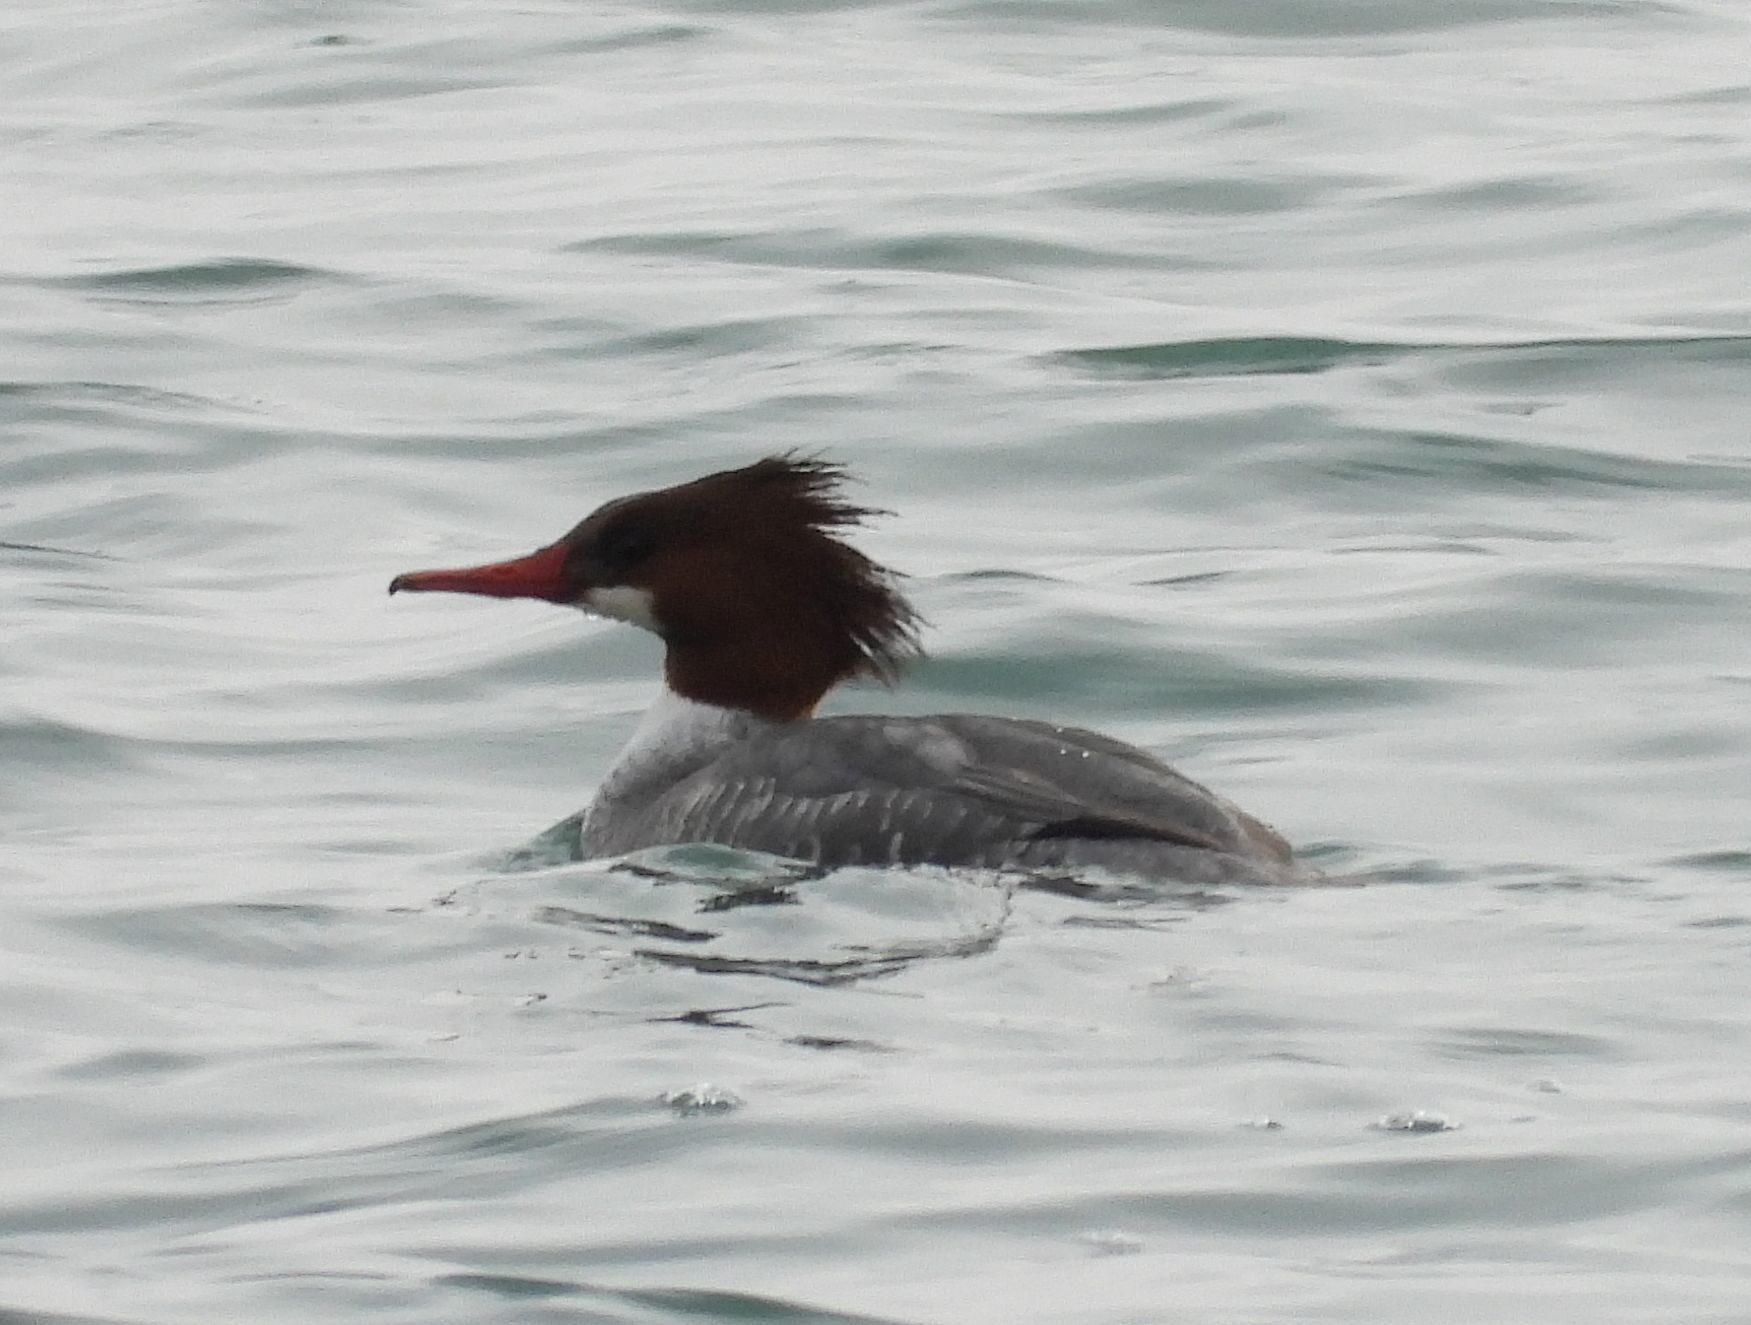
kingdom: Animalia
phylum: Chordata
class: Aves
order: Anseriformes
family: Anatidae
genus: Mergus
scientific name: Mergus merganser
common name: Common merganser
